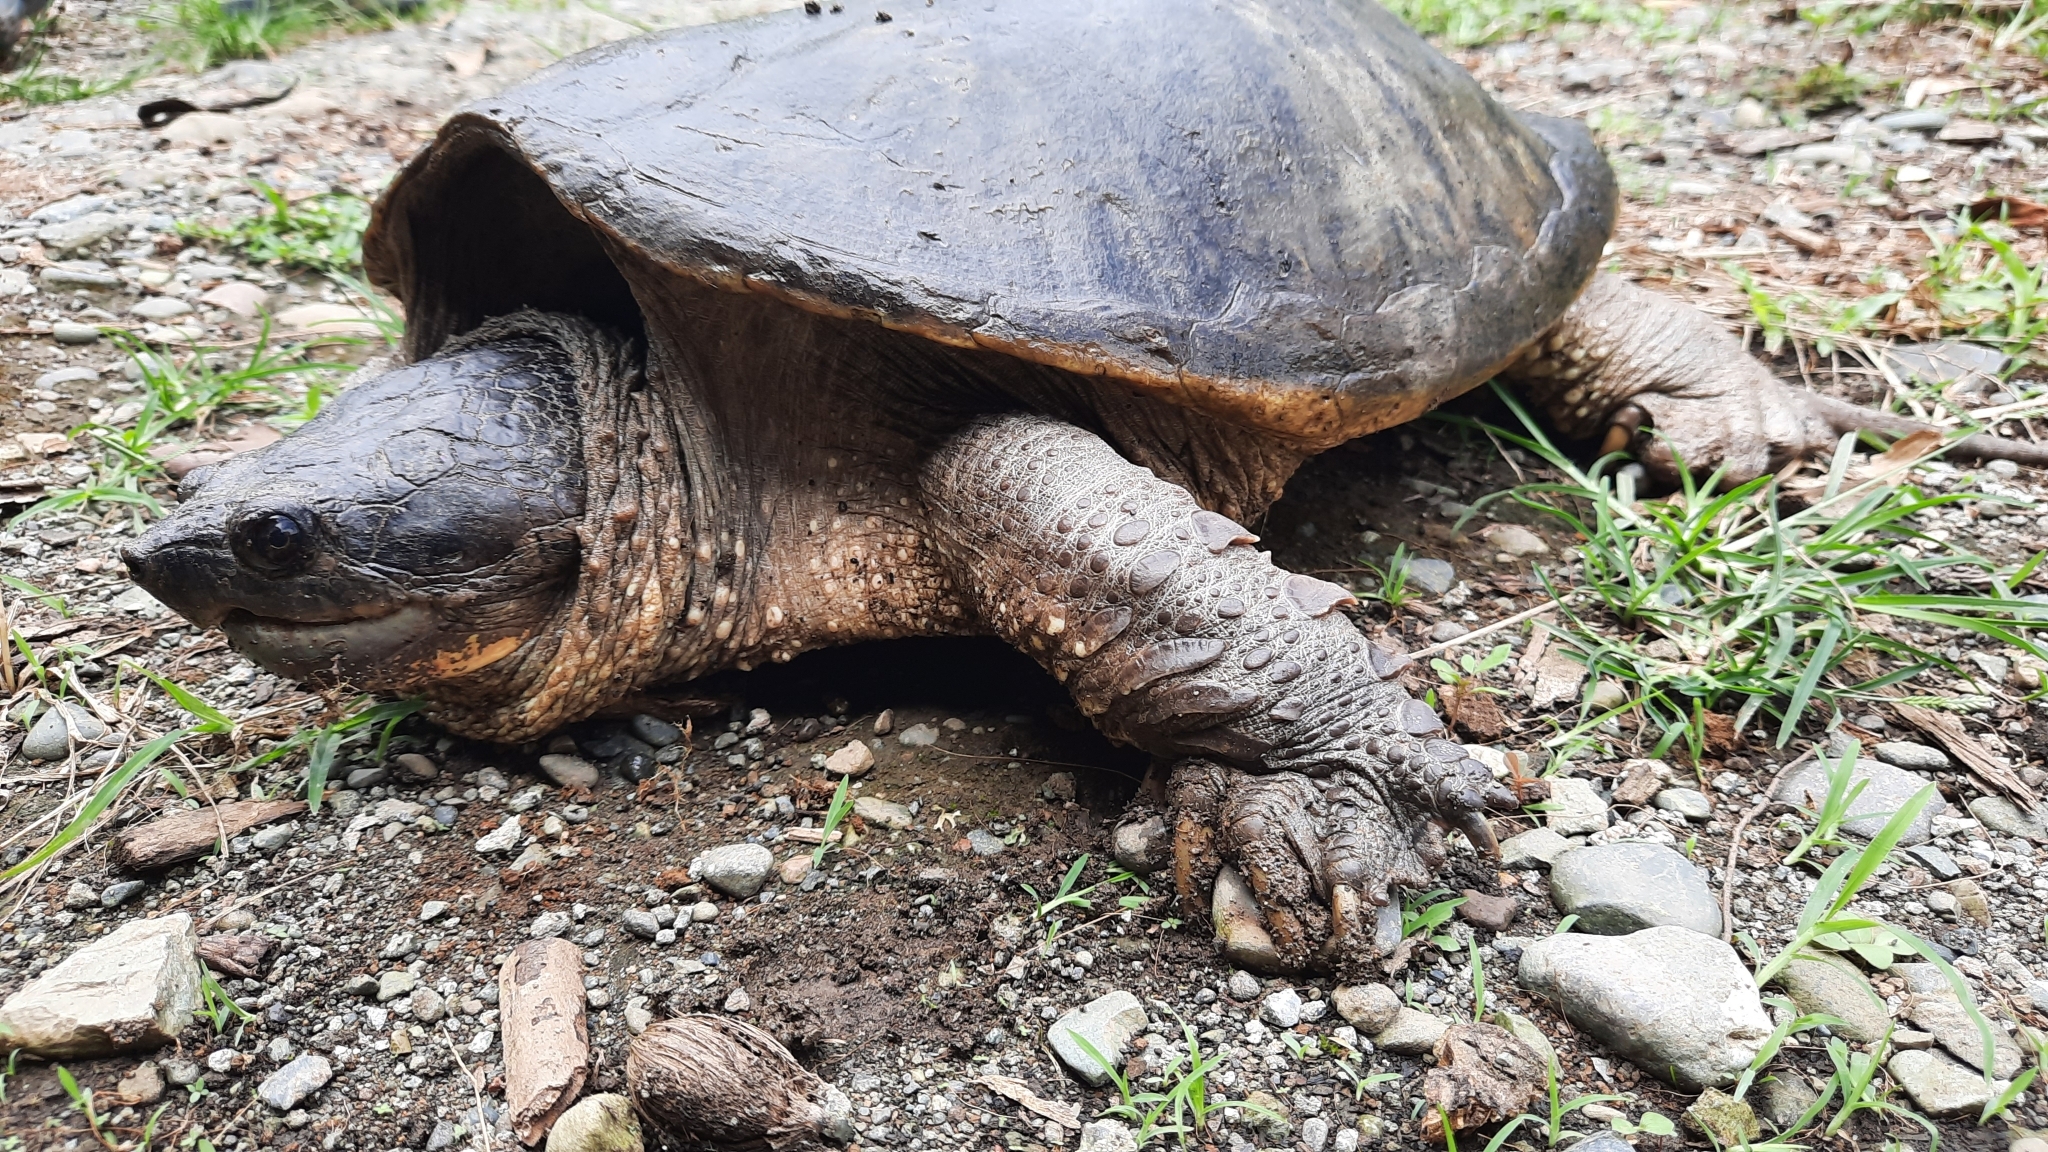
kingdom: Animalia
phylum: Chordata
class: Testudines
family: Chelydridae
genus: Chelydra
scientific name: Chelydra acutirostris
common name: South american snapping turtle
